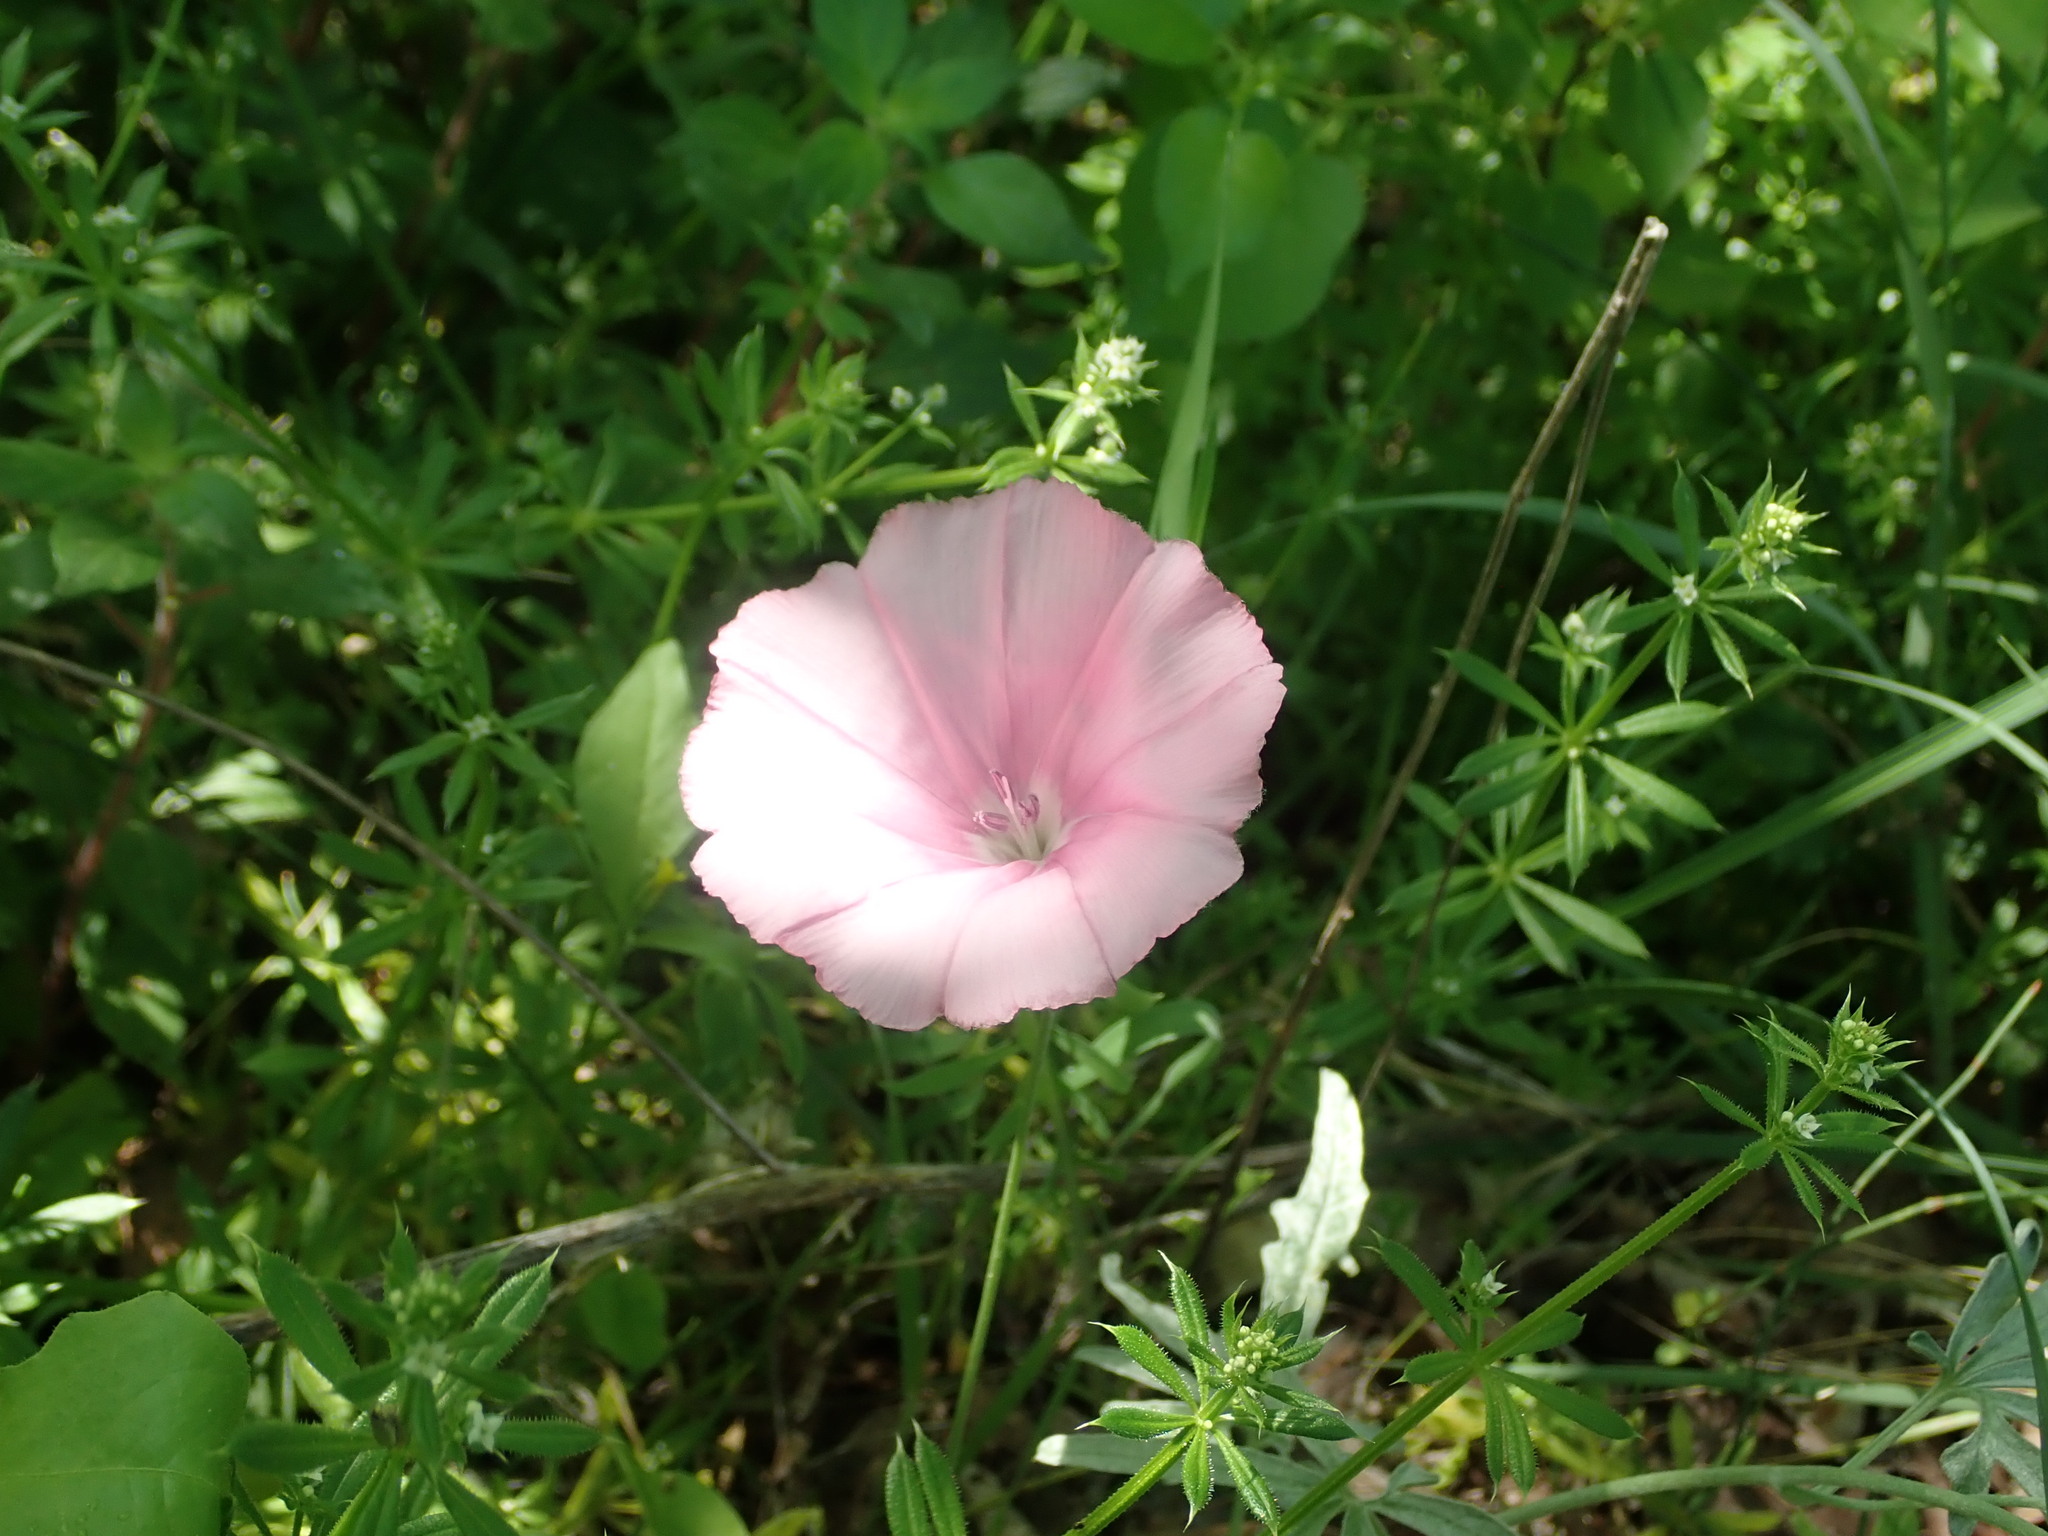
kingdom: Plantae
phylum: Tracheophyta
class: Magnoliopsida
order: Solanales
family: Convolvulaceae
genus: Convolvulus
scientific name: Convolvulus elegantissimus
